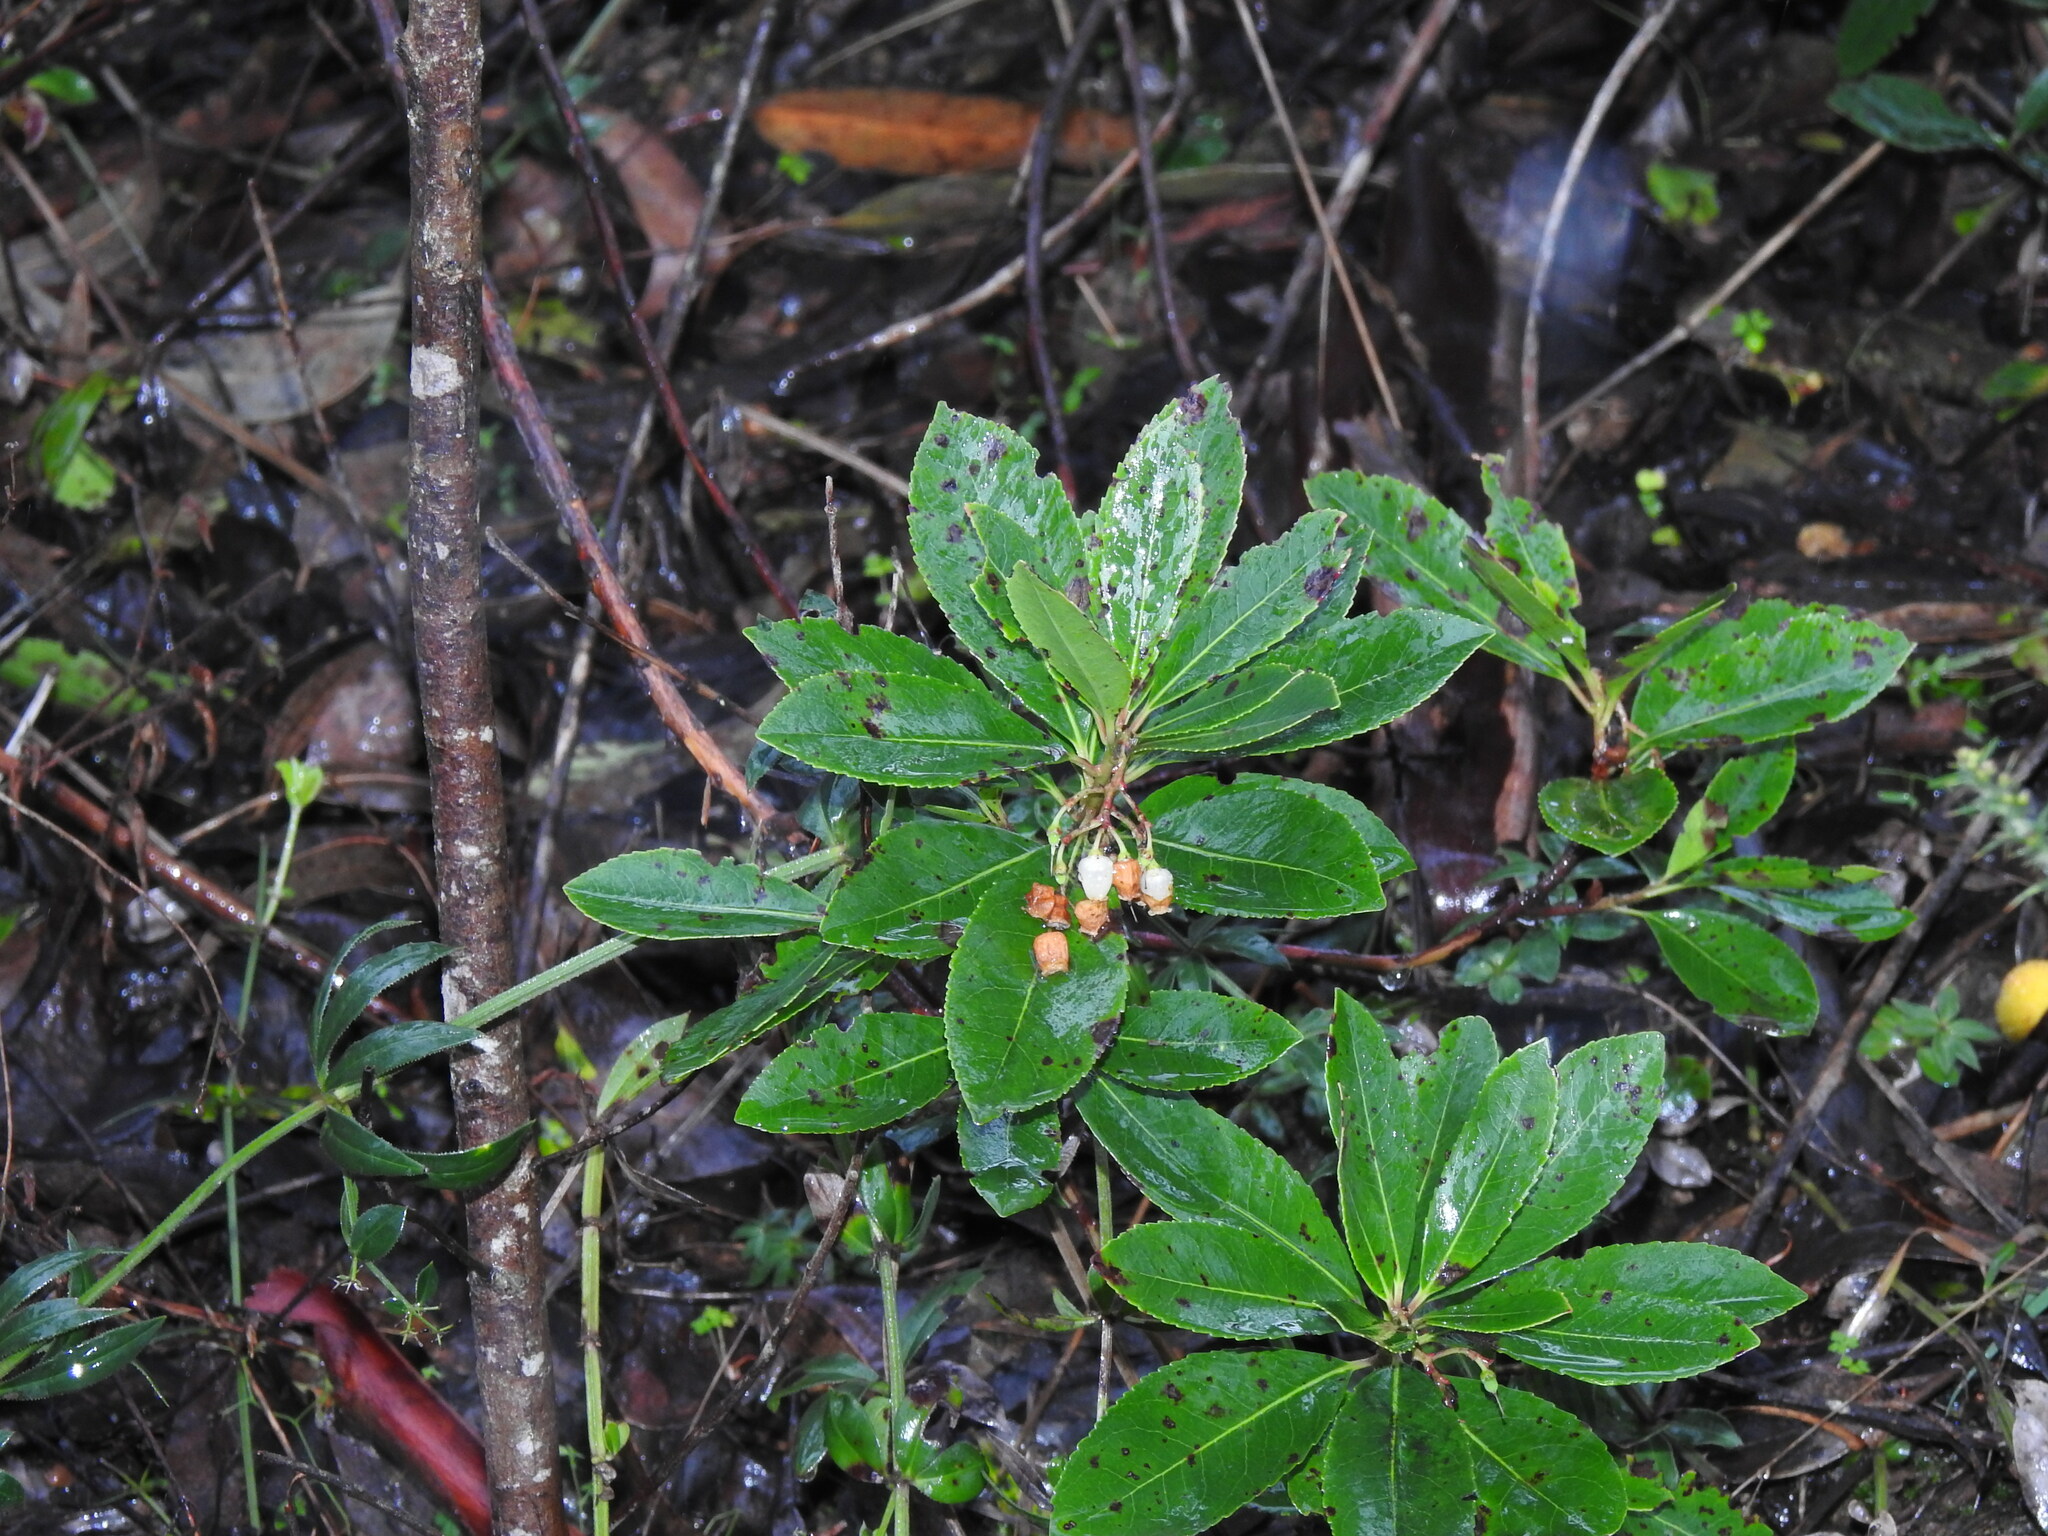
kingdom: Plantae
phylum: Tracheophyta
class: Magnoliopsida
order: Ericales
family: Ericaceae
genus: Arbutus
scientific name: Arbutus unedo
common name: Strawberry-tree
